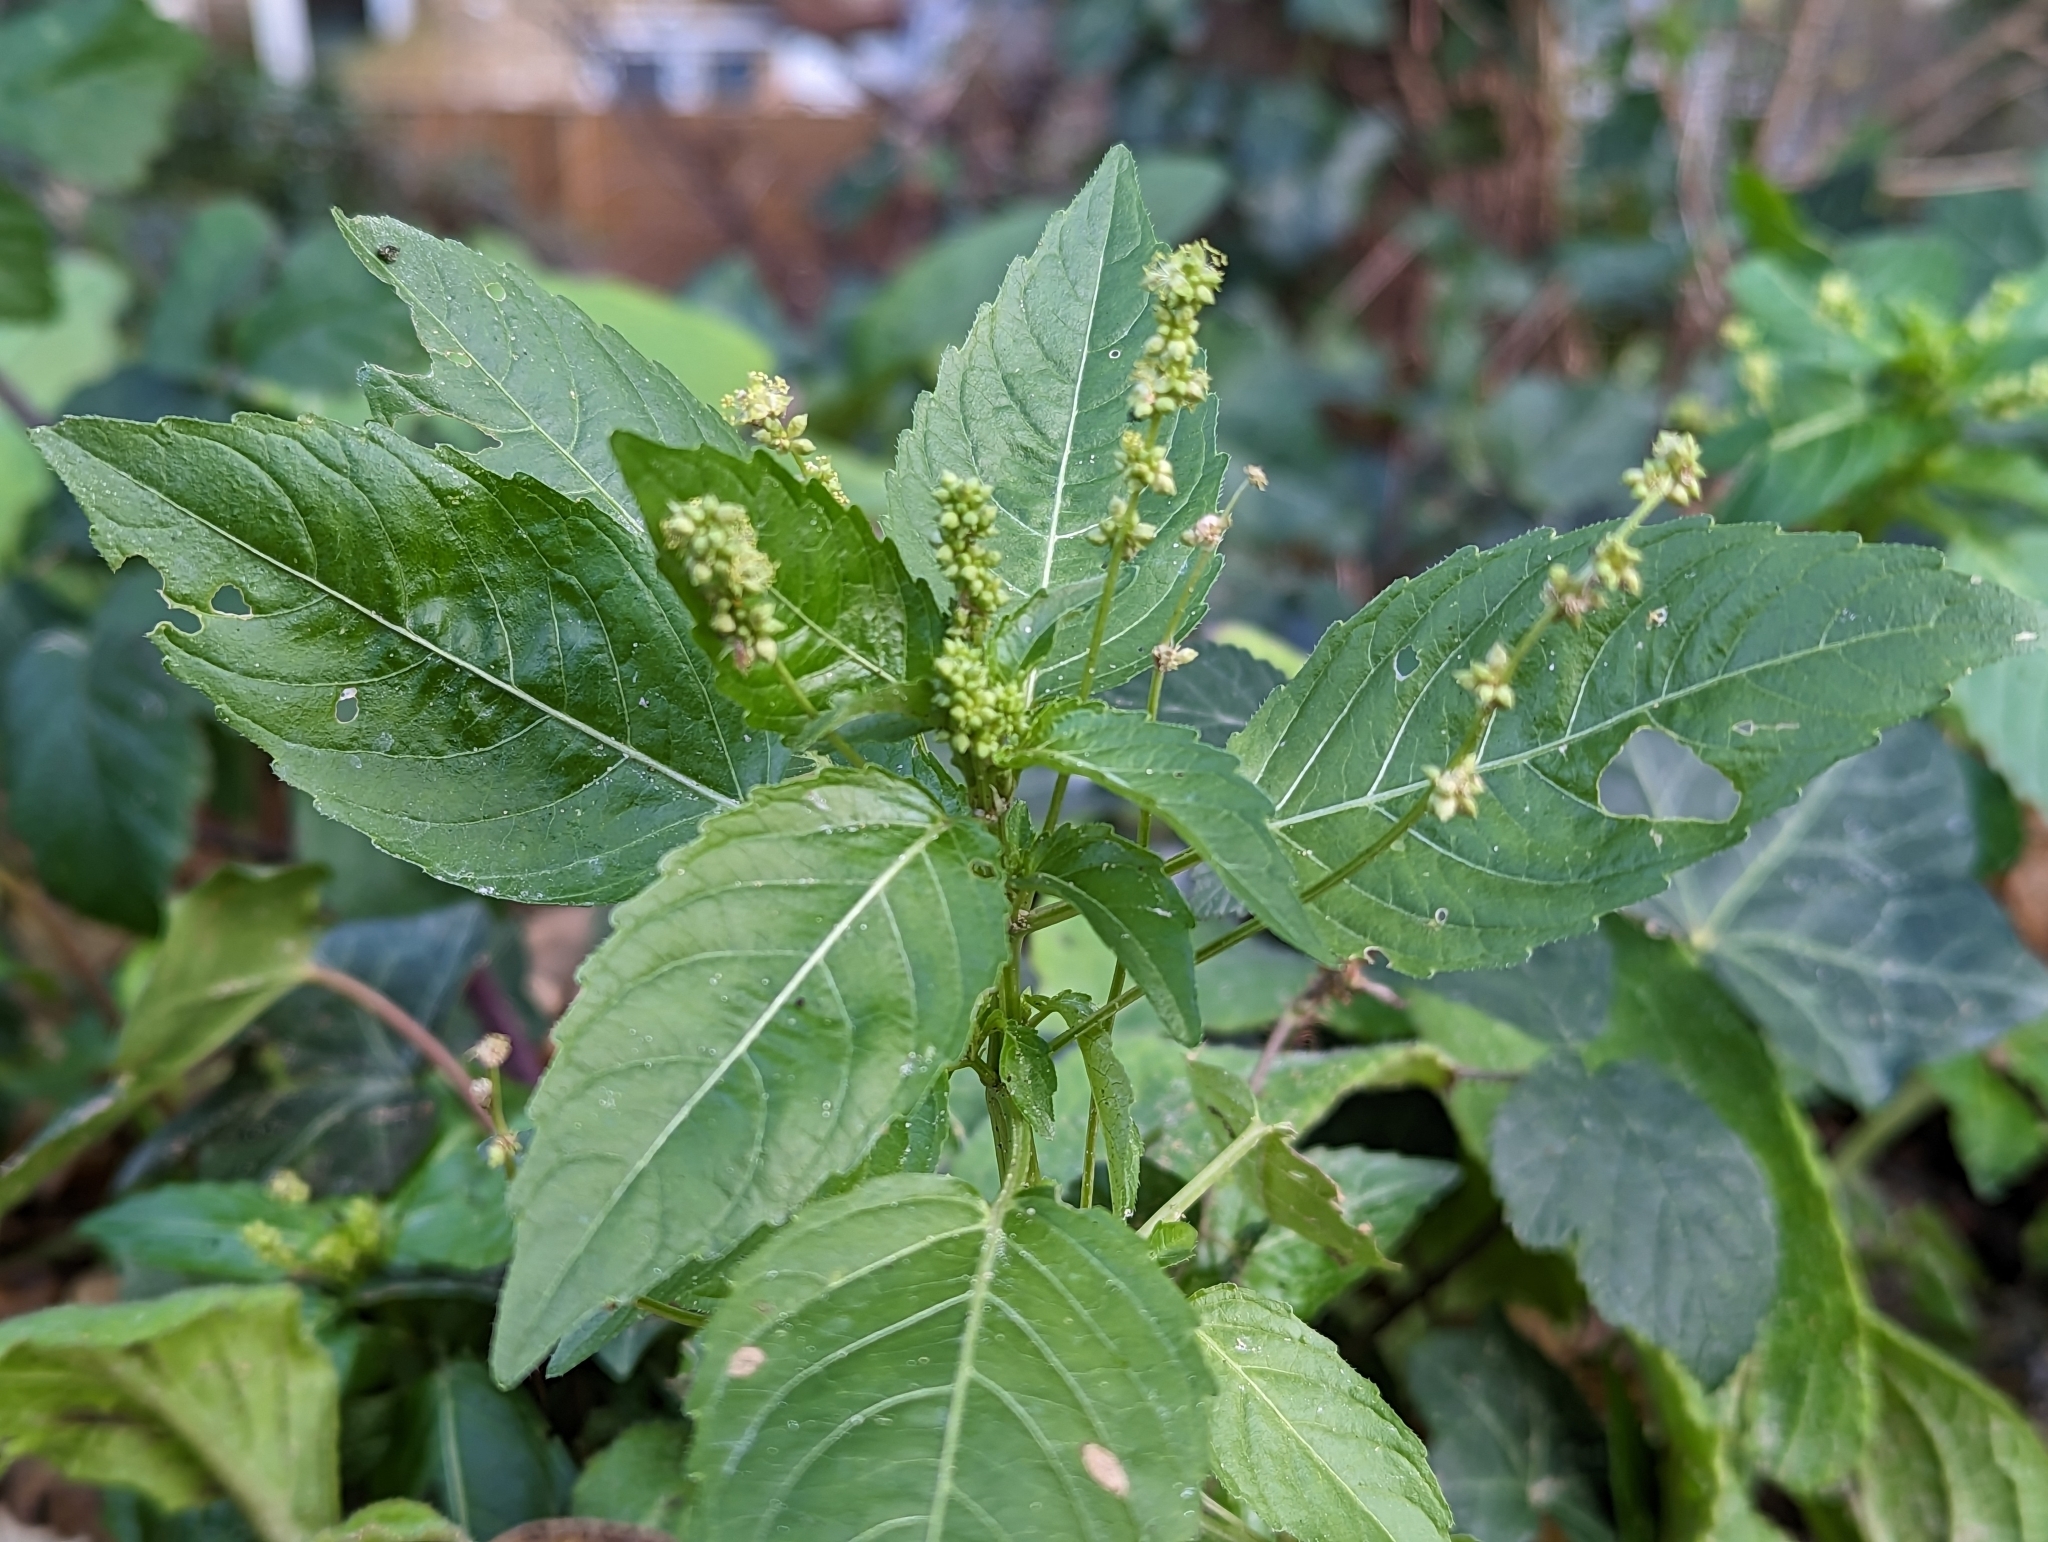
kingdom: Plantae
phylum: Tracheophyta
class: Magnoliopsida
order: Malpighiales
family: Euphorbiaceae
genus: Mercurialis
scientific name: Mercurialis annua
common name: Annual mercury
